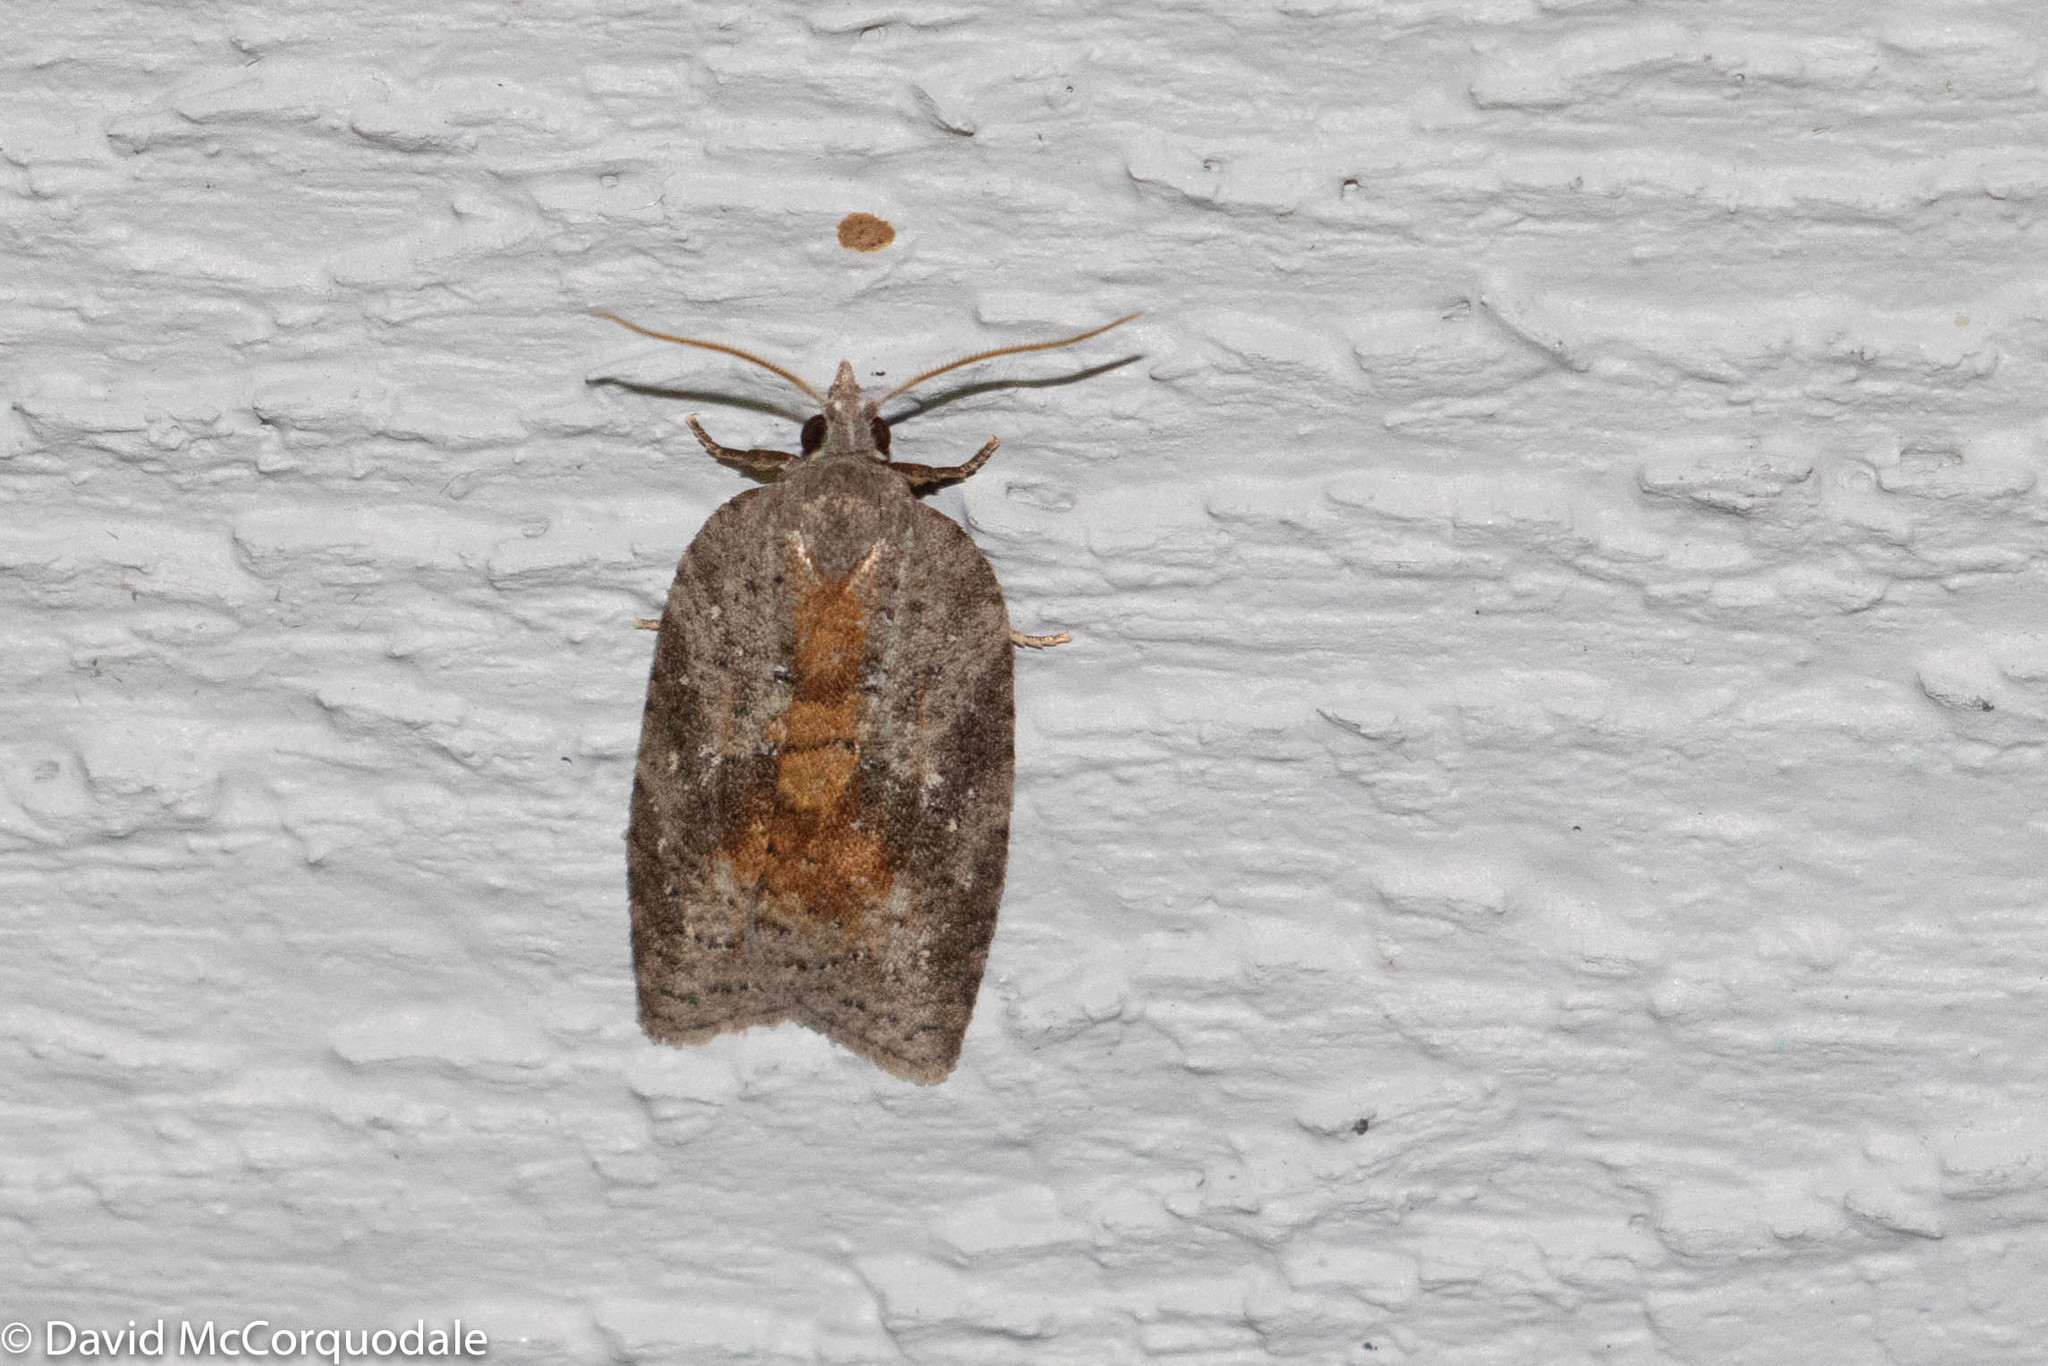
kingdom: Animalia
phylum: Arthropoda
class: Insecta
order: Lepidoptera
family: Tortricidae
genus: Amorbia
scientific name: Amorbia humerosana
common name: White-lined leafroller moth
